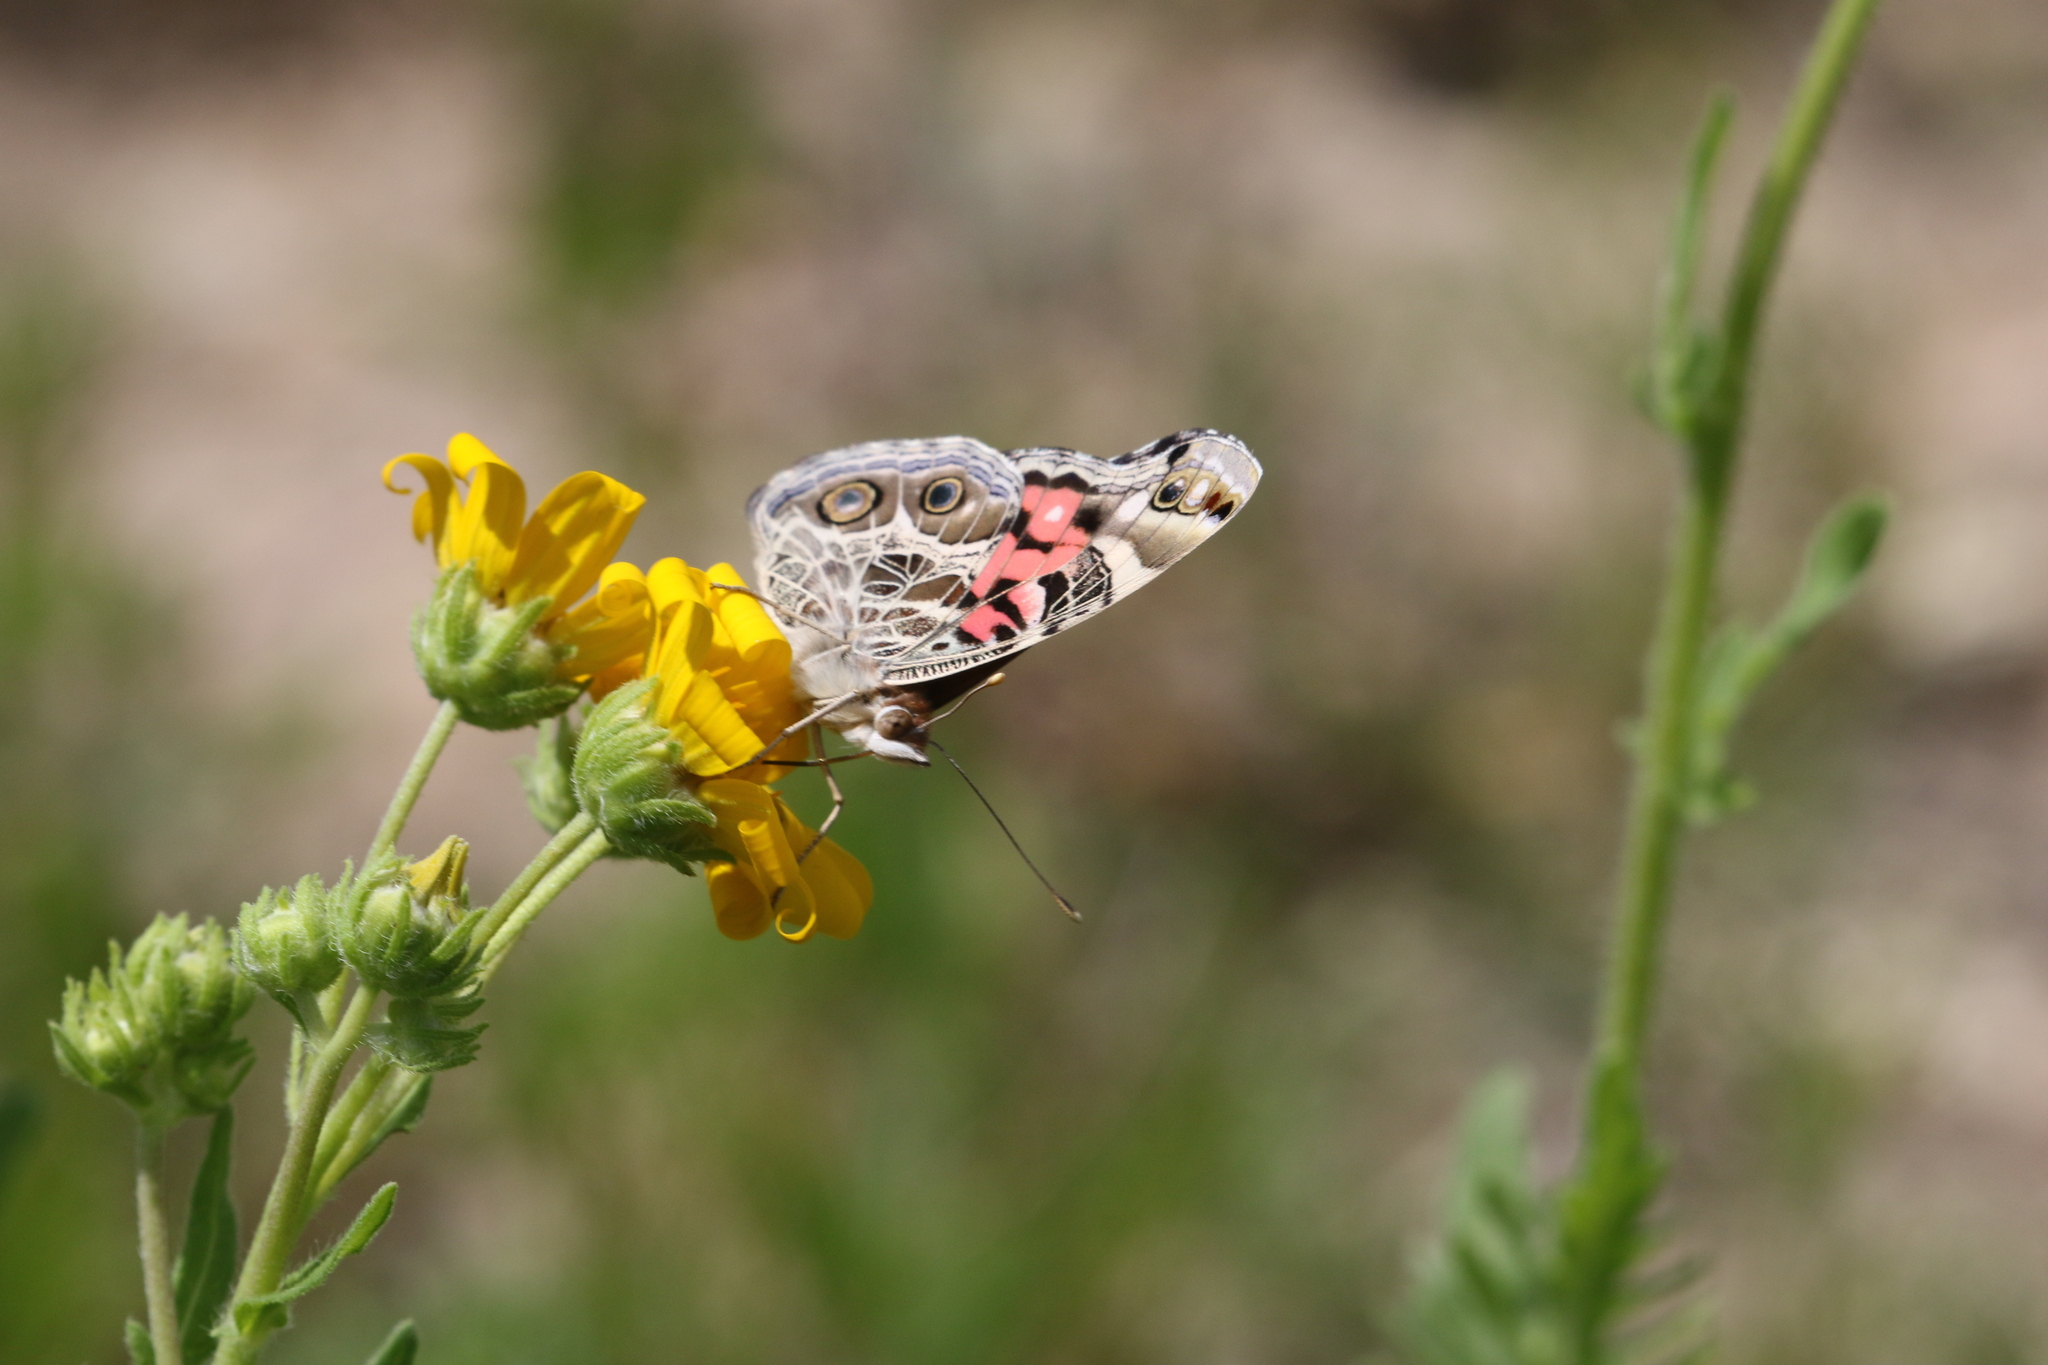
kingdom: Animalia
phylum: Arthropoda
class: Insecta
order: Lepidoptera
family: Nymphalidae
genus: Vanessa
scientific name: Vanessa virginiensis
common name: American lady
